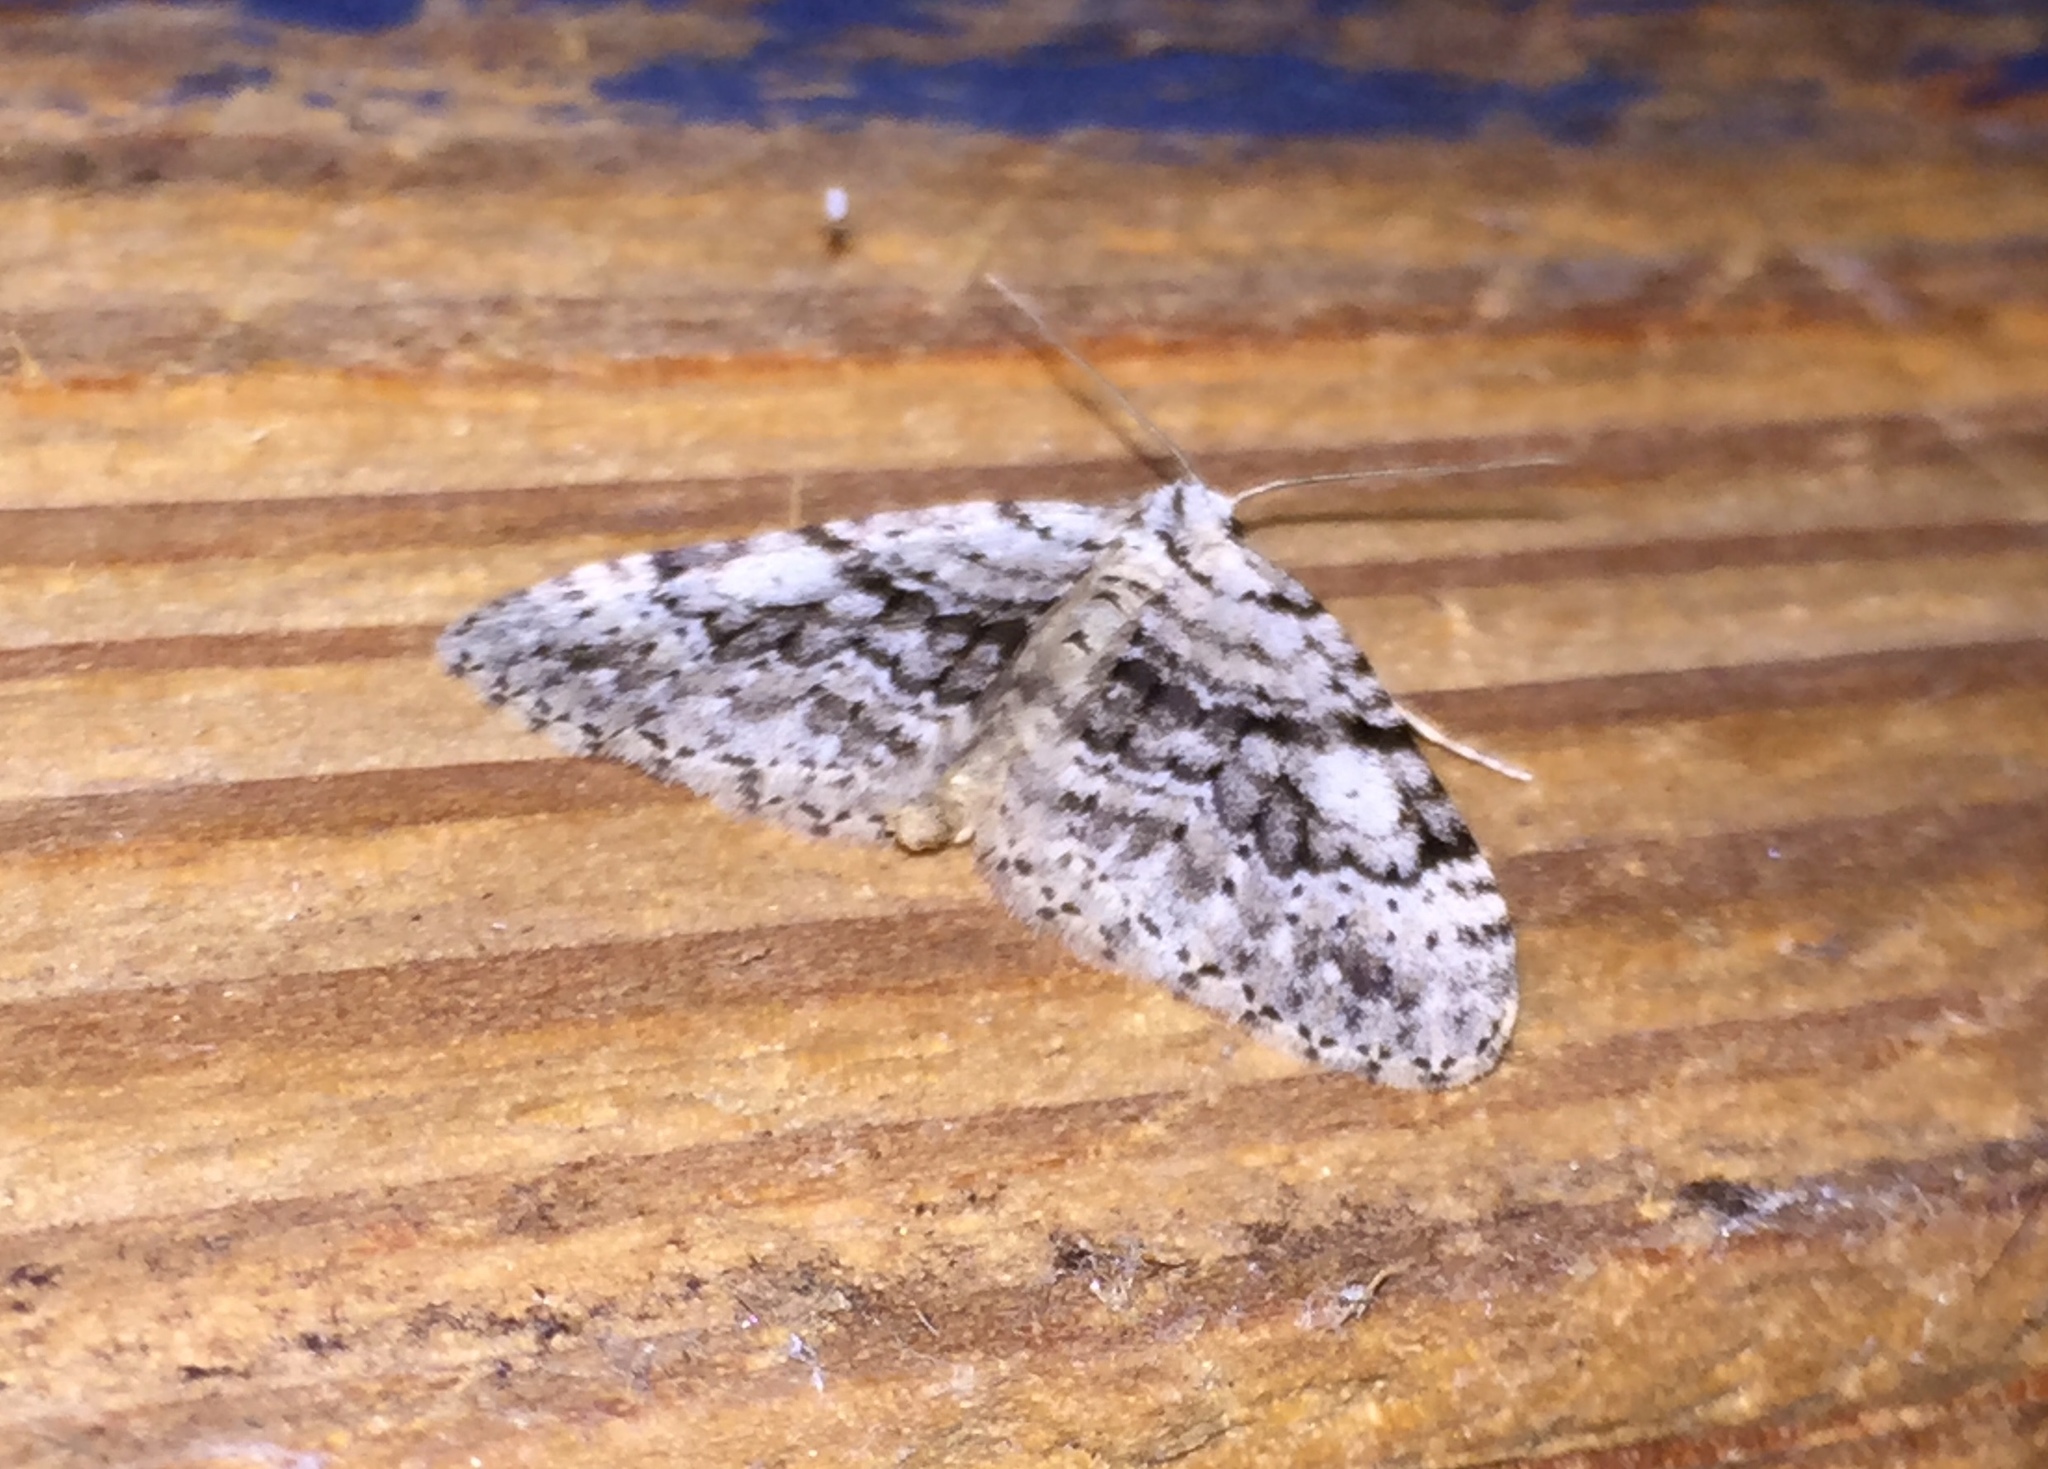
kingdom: Animalia
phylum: Arthropoda
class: Insecta
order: Lepidoptera
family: Geometridae
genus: Perizoma
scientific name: Perizoma curvilinea
